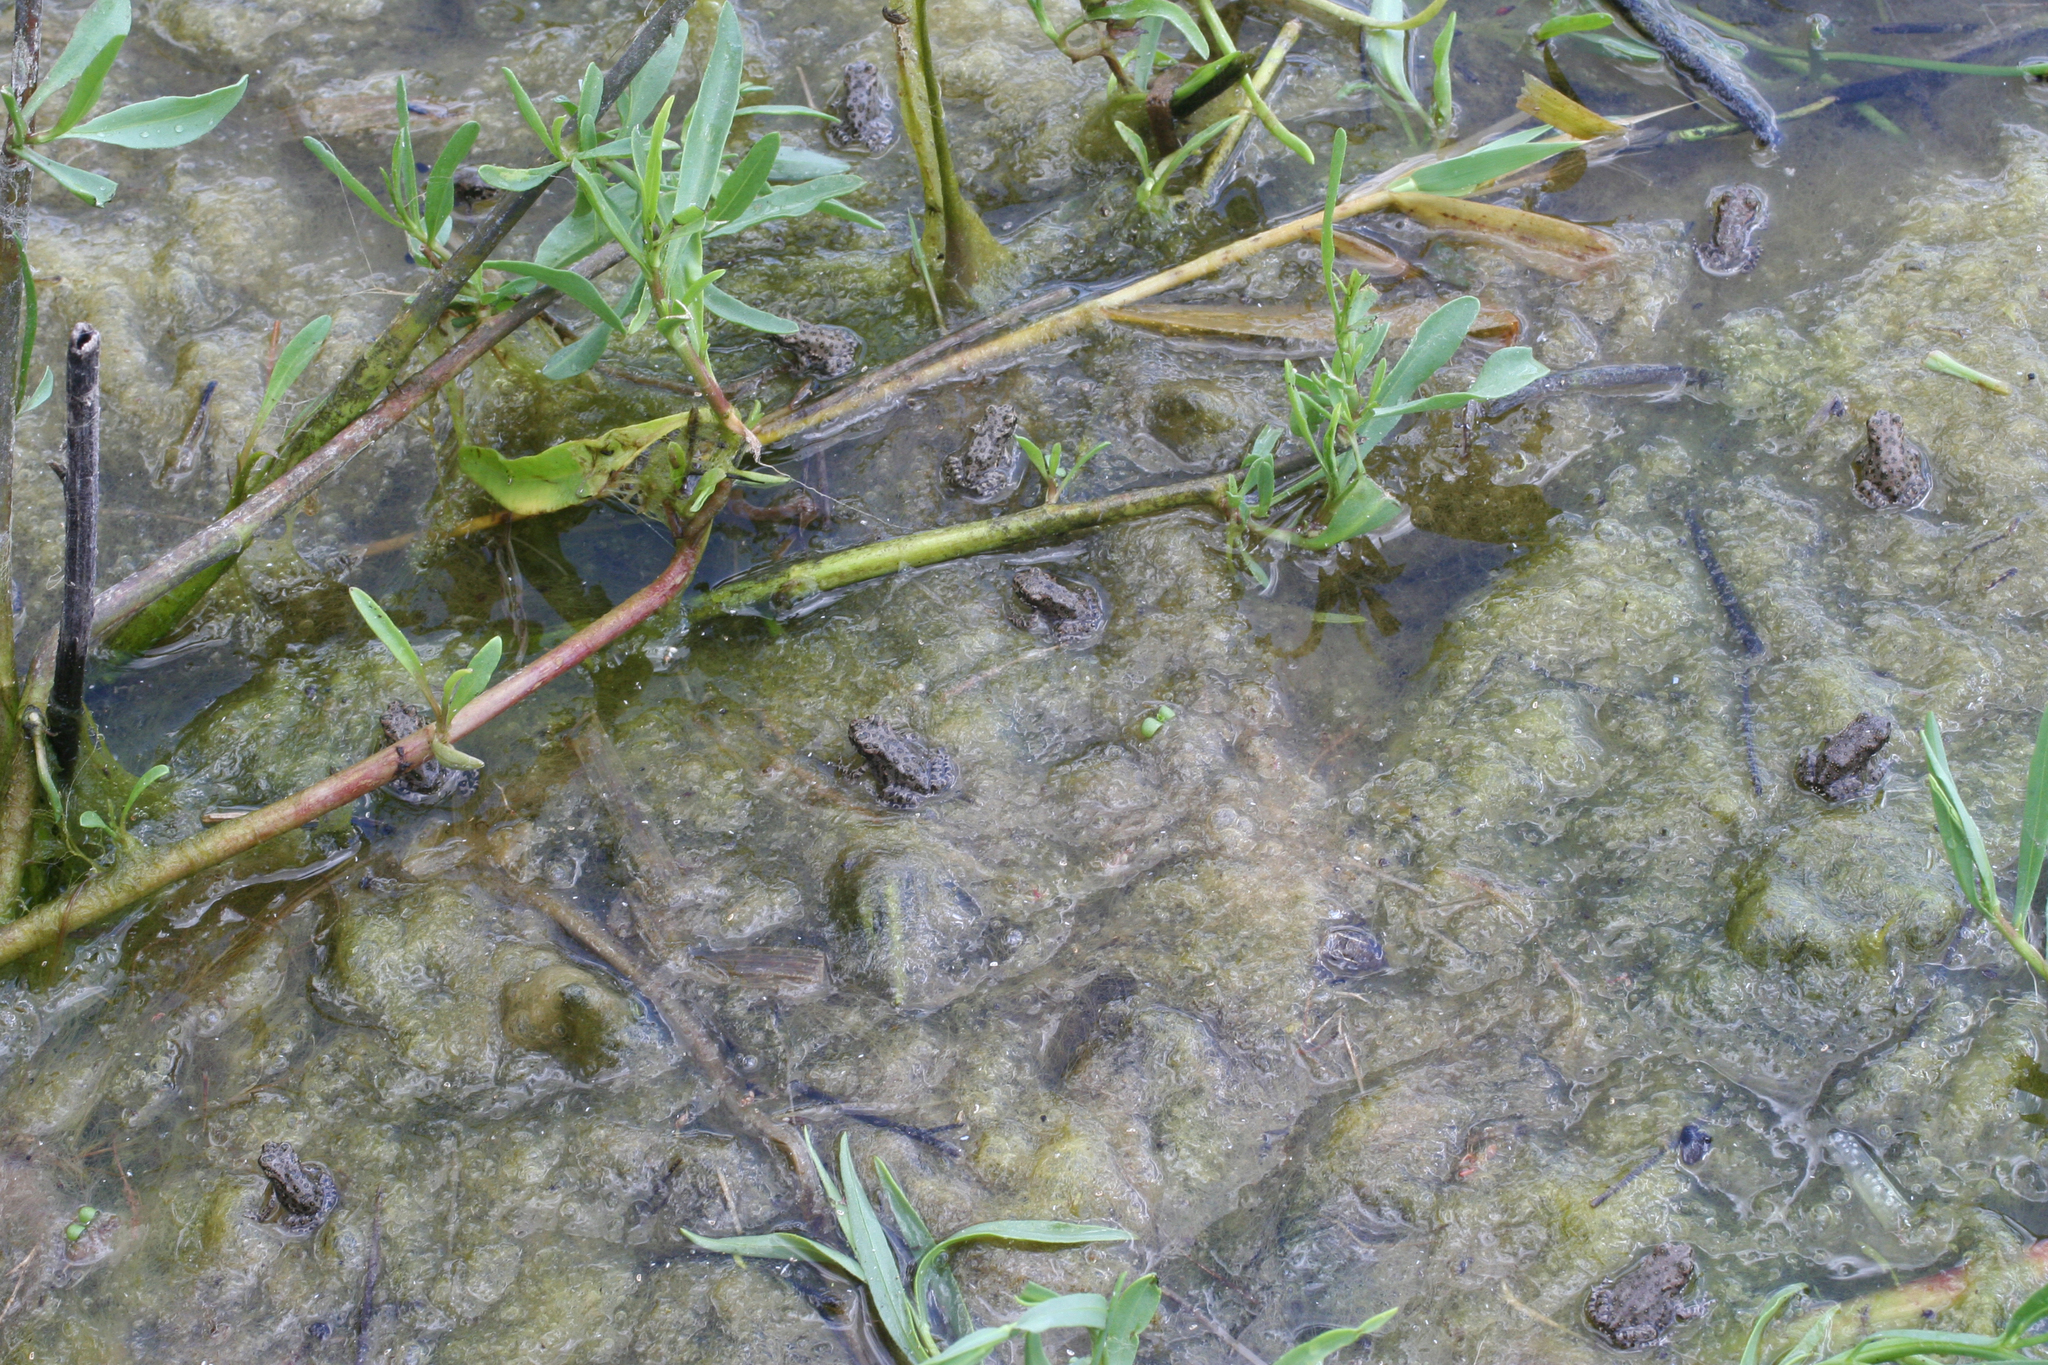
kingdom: Animalia
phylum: Chordata
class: Amphibia
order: Anura
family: Bufonidae
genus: Bufotes
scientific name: Bufotes viridis
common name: European green toad
